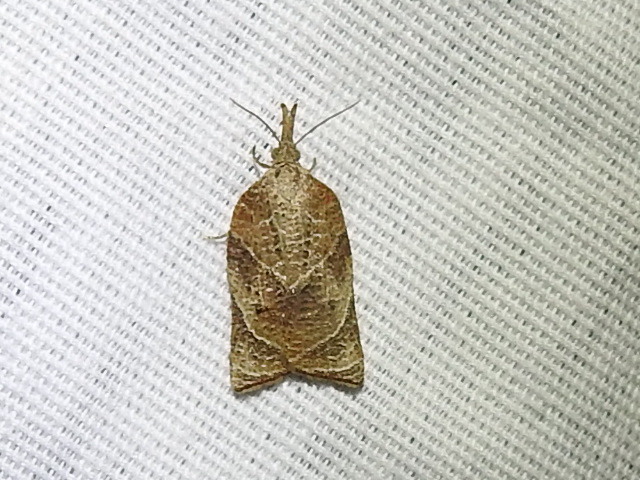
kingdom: Animalia
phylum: Arthropoda
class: Insecta
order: Lepidoptera
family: Tortricidae
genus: Platynota
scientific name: Platynota rostrana
